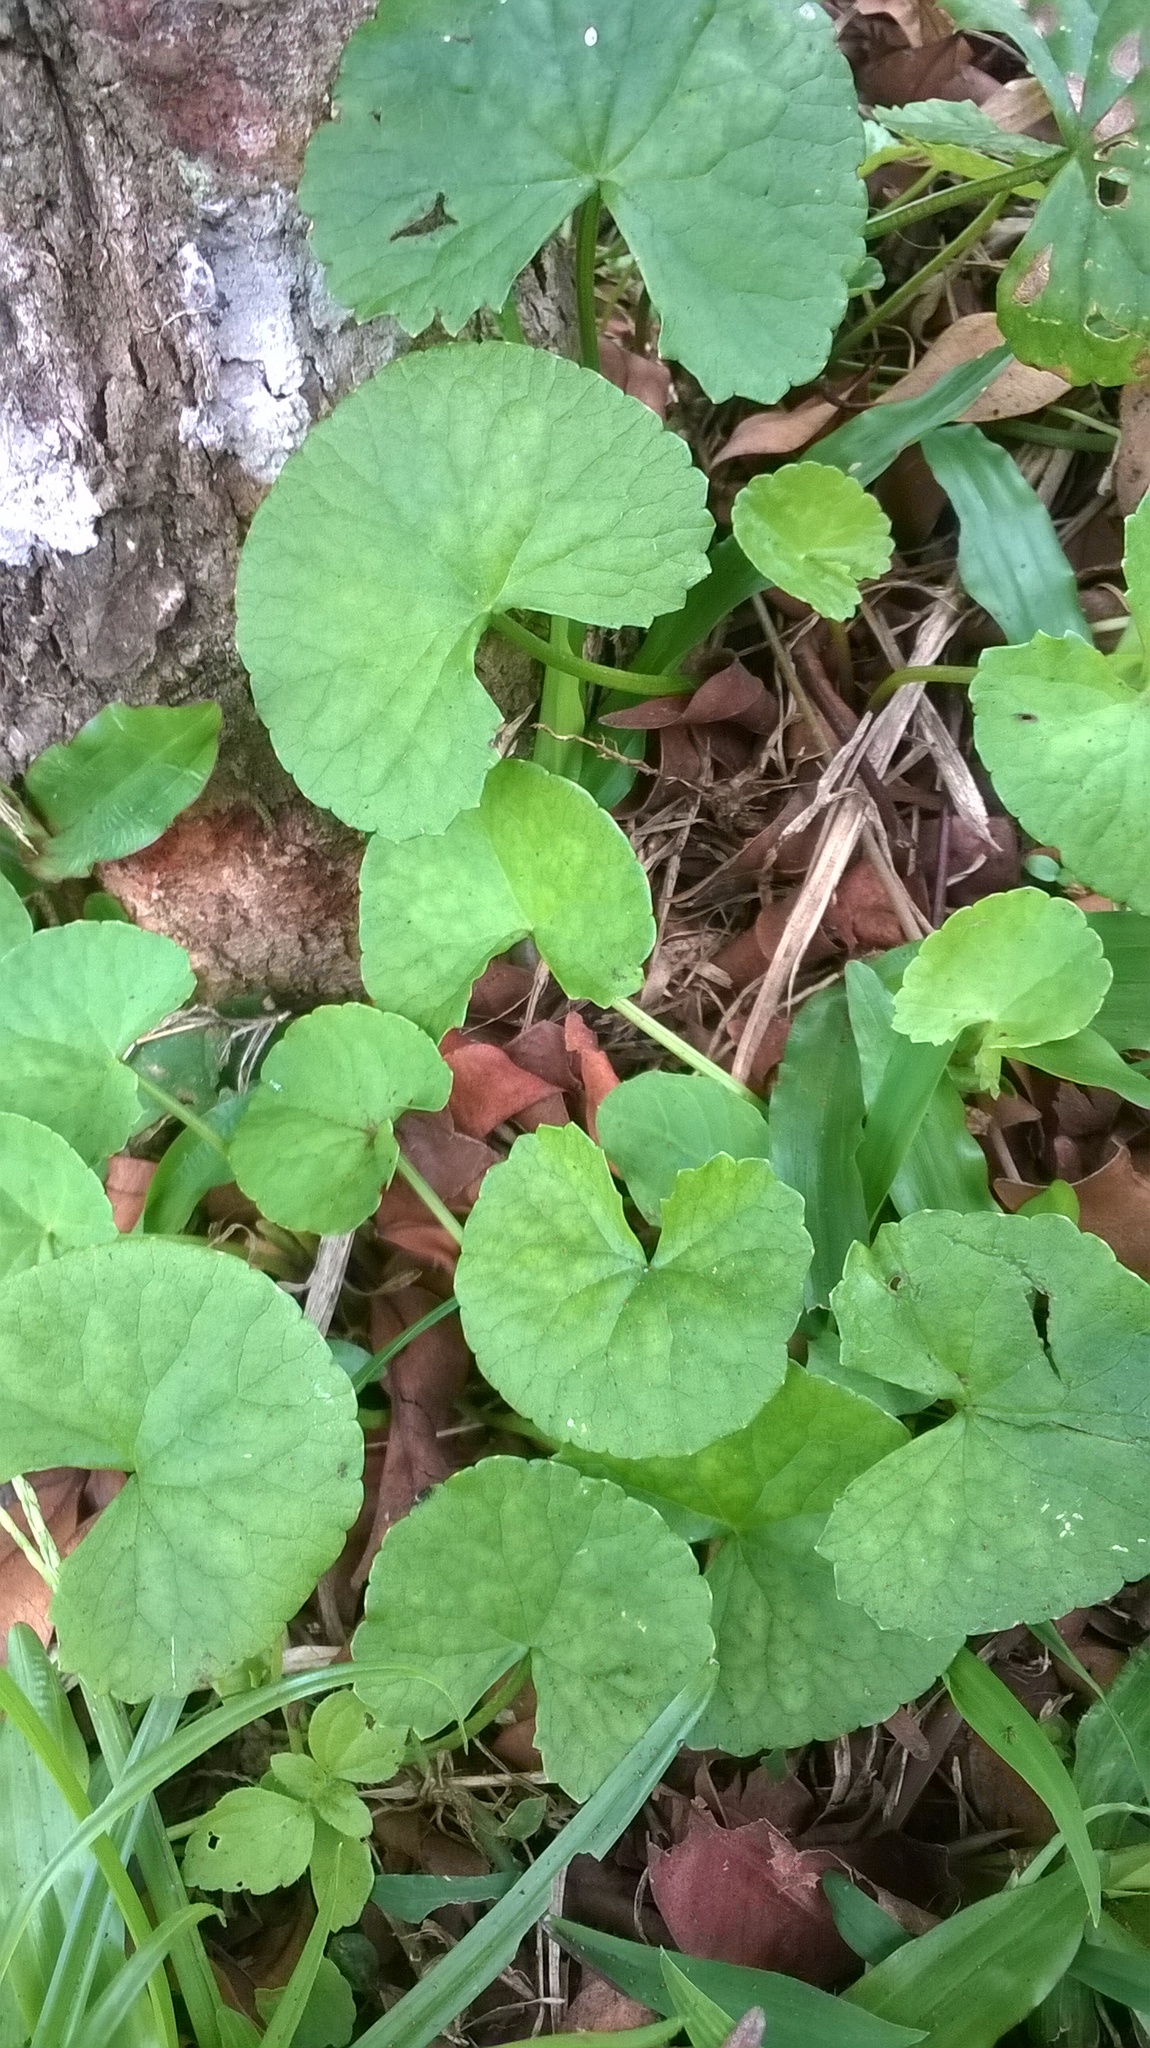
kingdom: Plantae
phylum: Tracheophyta
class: Magnoliopsida
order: Apiales
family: Apiaceae
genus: Centella
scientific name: Centella asiatica
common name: Spadeleaf
